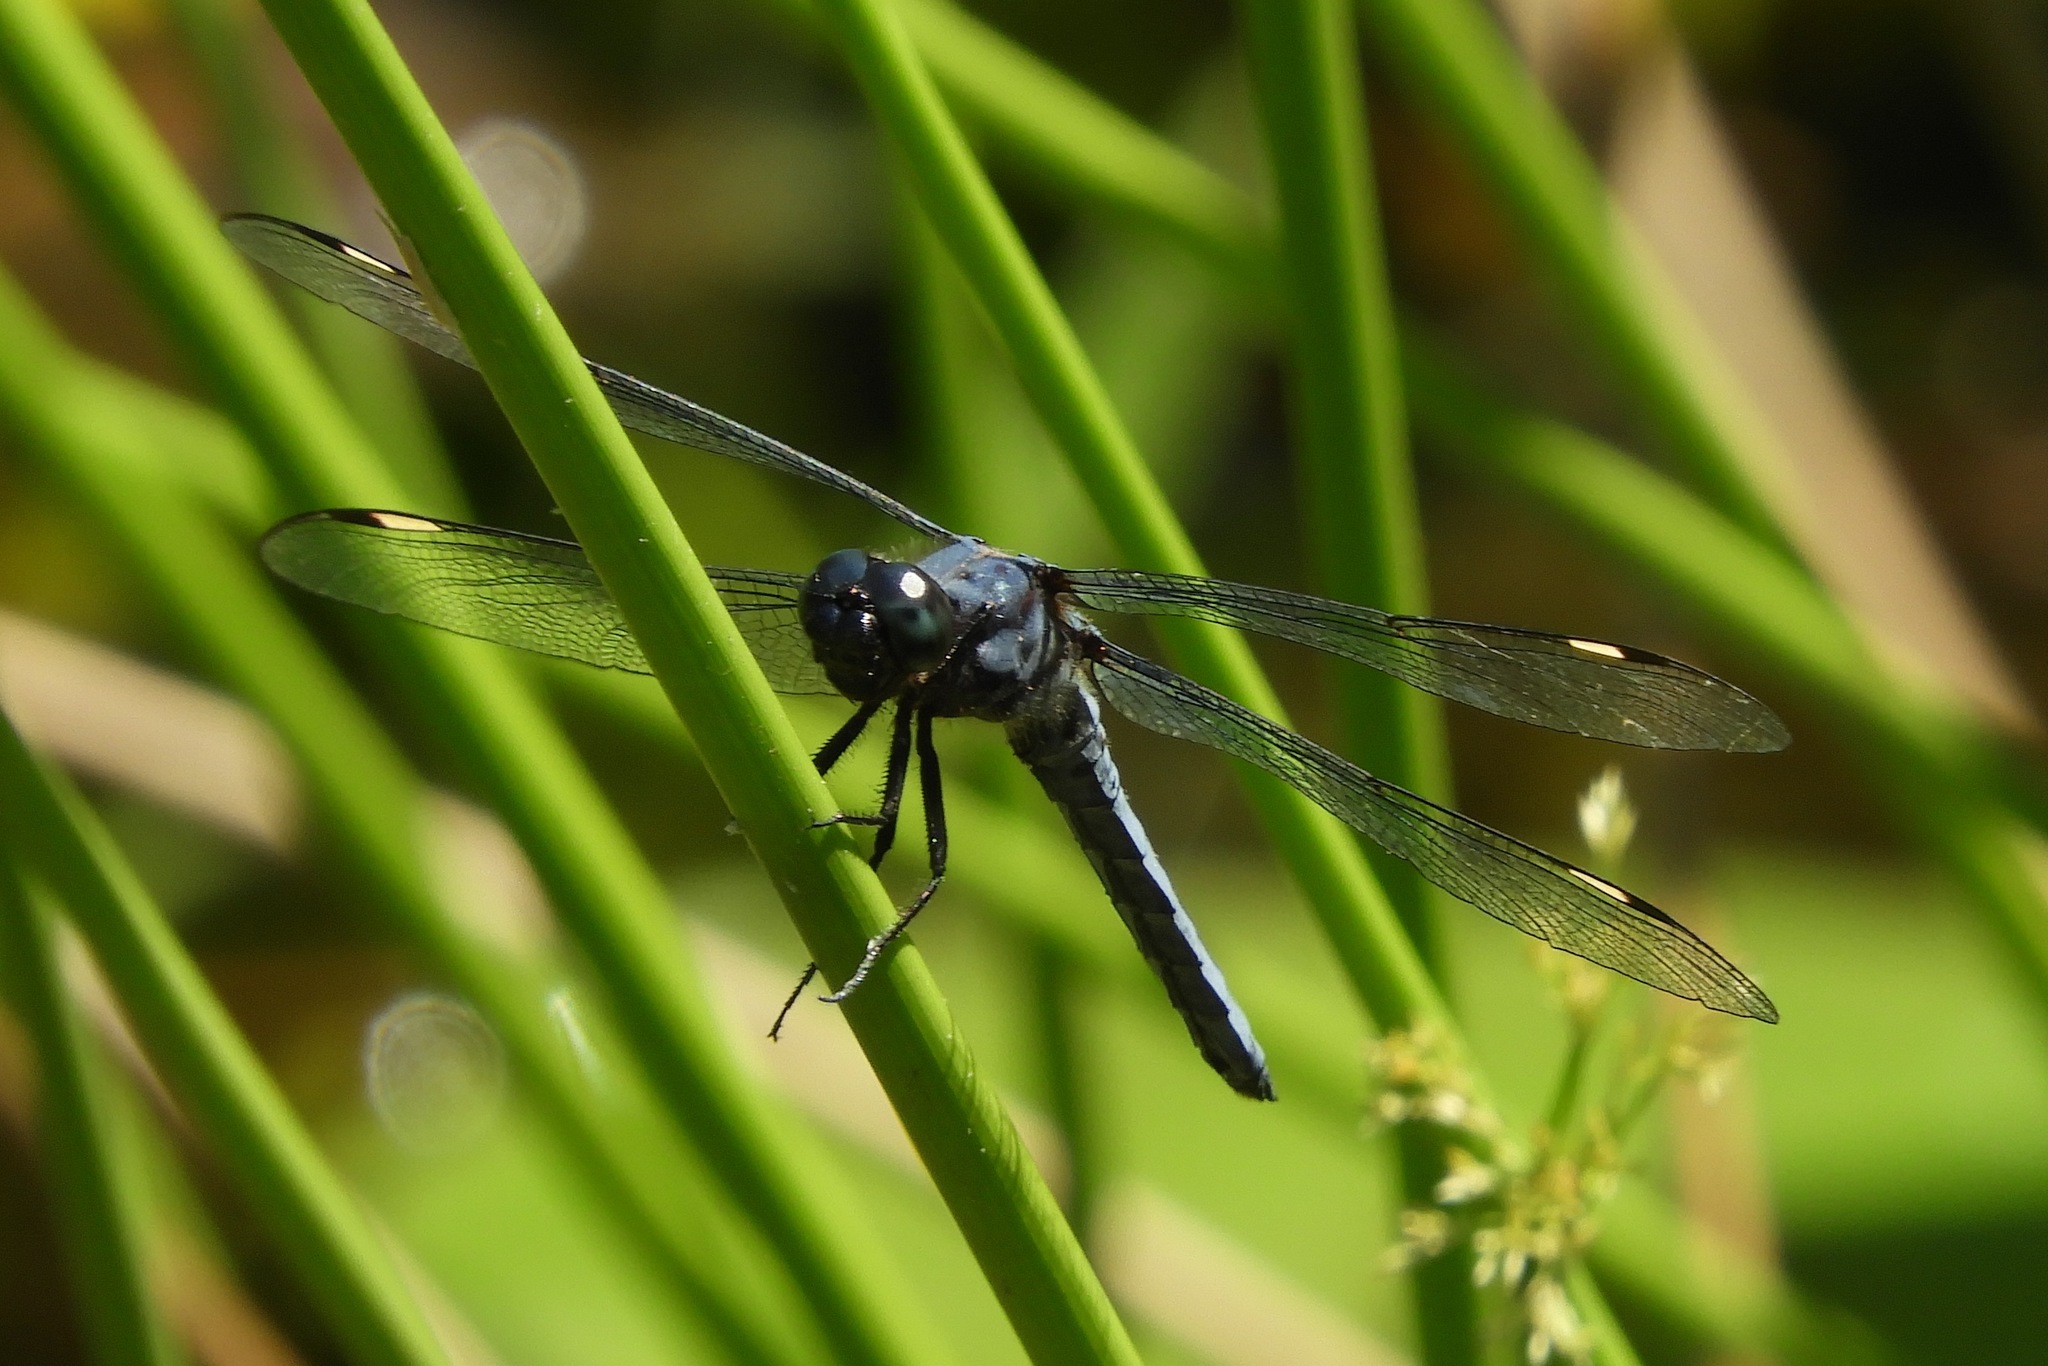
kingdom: Animalia
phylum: Arthropoda
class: Insecta
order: Odonata
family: Libellulidae
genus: Libellula
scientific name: Libellula cyanea
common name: Spangled skimmer
